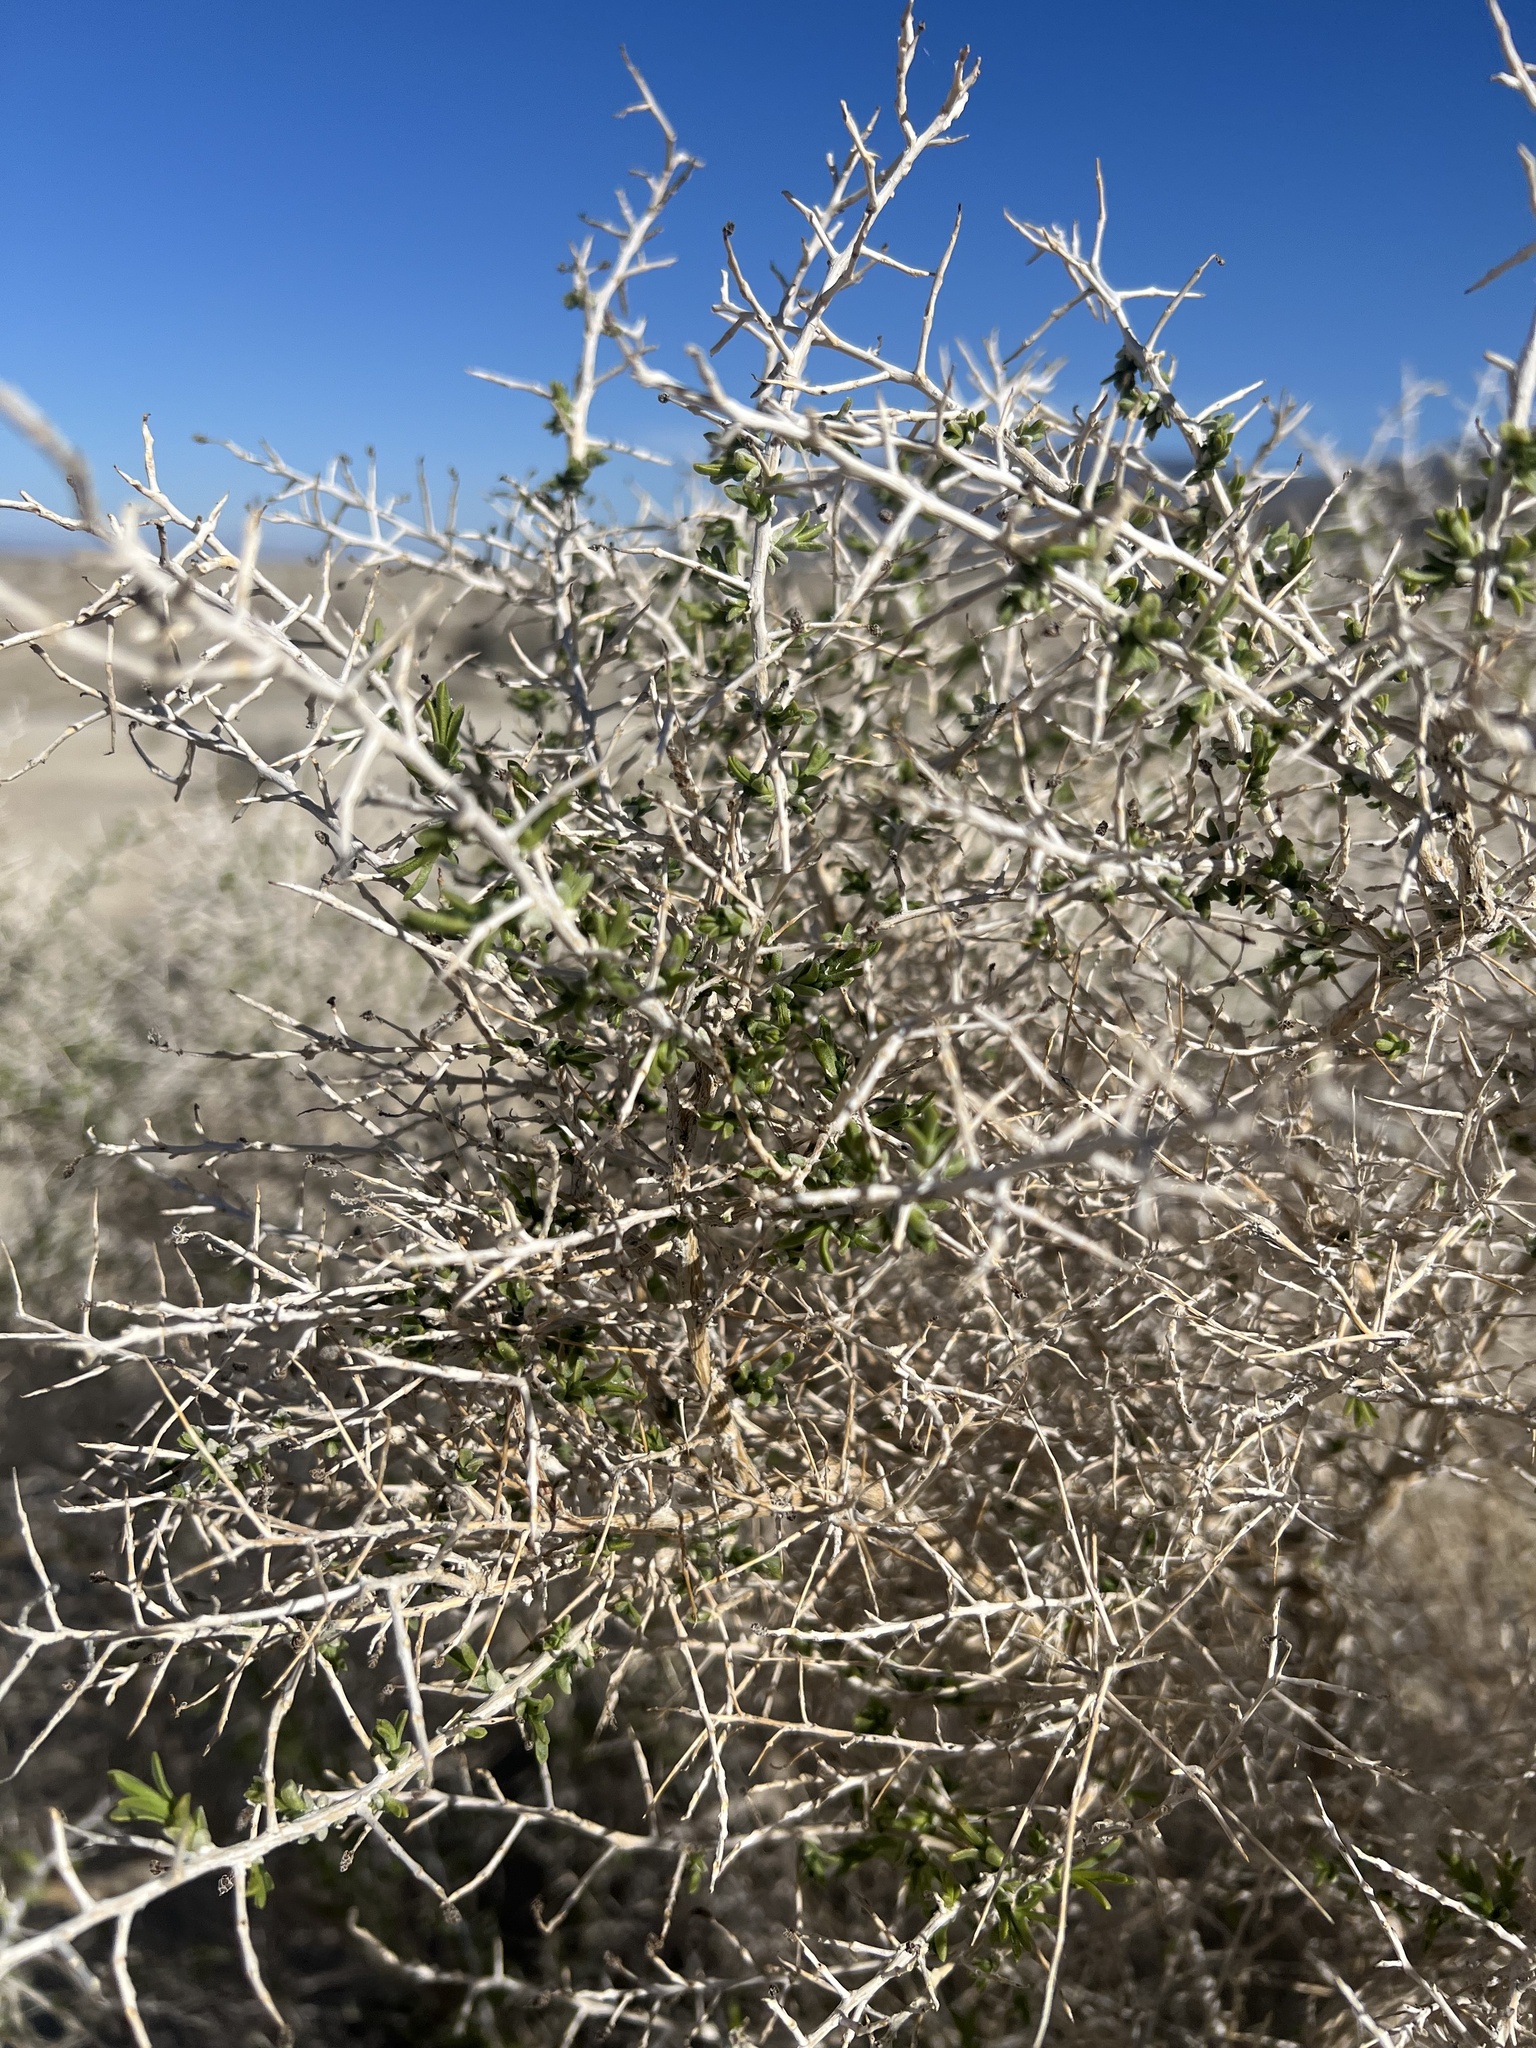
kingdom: Plantae
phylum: Tracheophyta
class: Magnoliopsida
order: Caryophyllales
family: Sarcobataceae
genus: Sarcobatus
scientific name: Sarcobatus vermiculatus
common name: Greasewood
